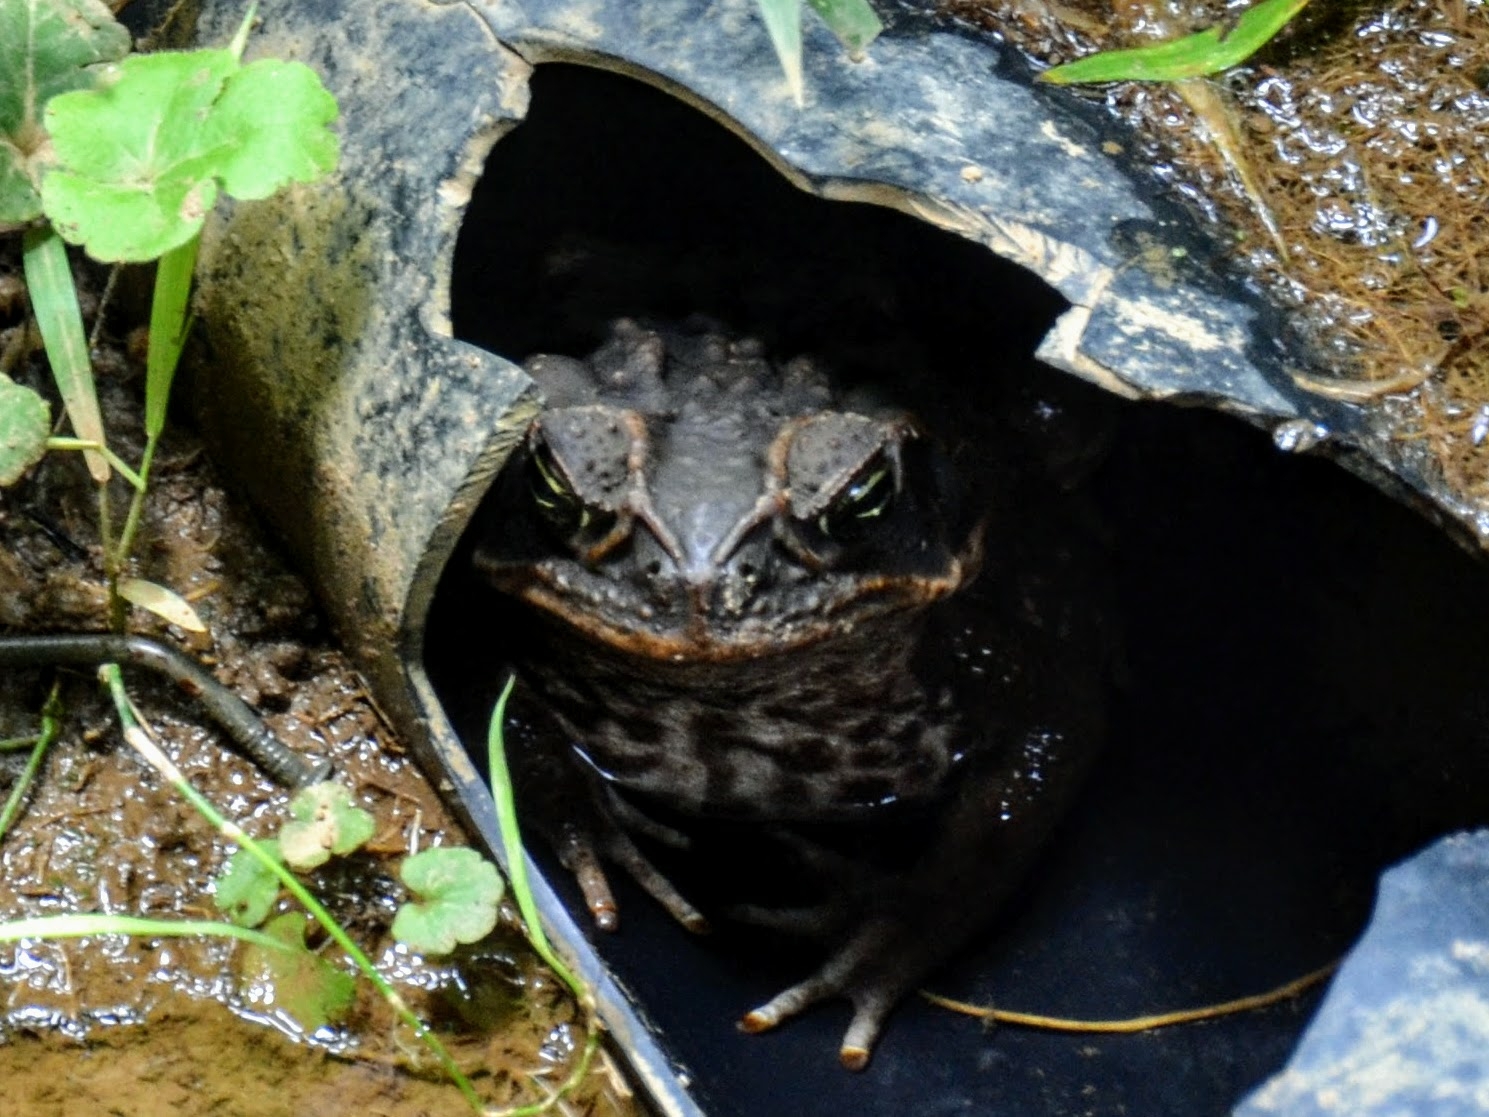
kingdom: Animalia
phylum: Chordata
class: Amphibia
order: Anura
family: Bufonidae
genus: Rhinella
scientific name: Rhinella horribilis
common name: Mesoamerican cane toad
